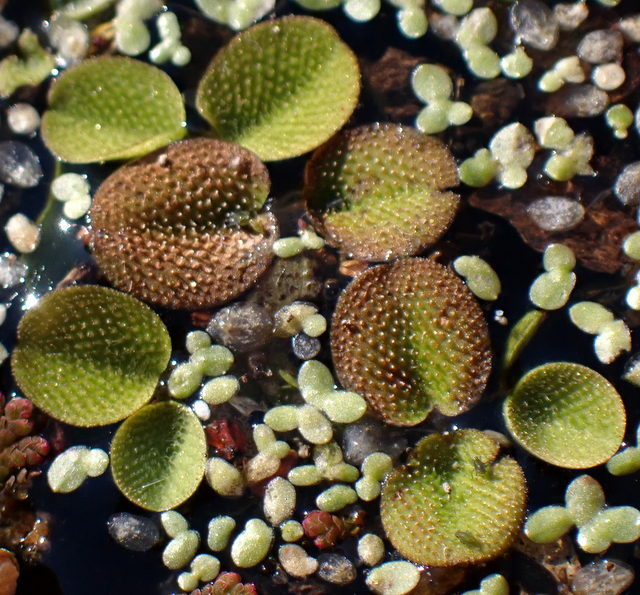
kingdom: Plantae
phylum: Tracheophyta
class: Polypodiopsida
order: Salviniales
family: Salviniaceae
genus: Salvinia
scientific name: Salvinia minima
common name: Water spangles
